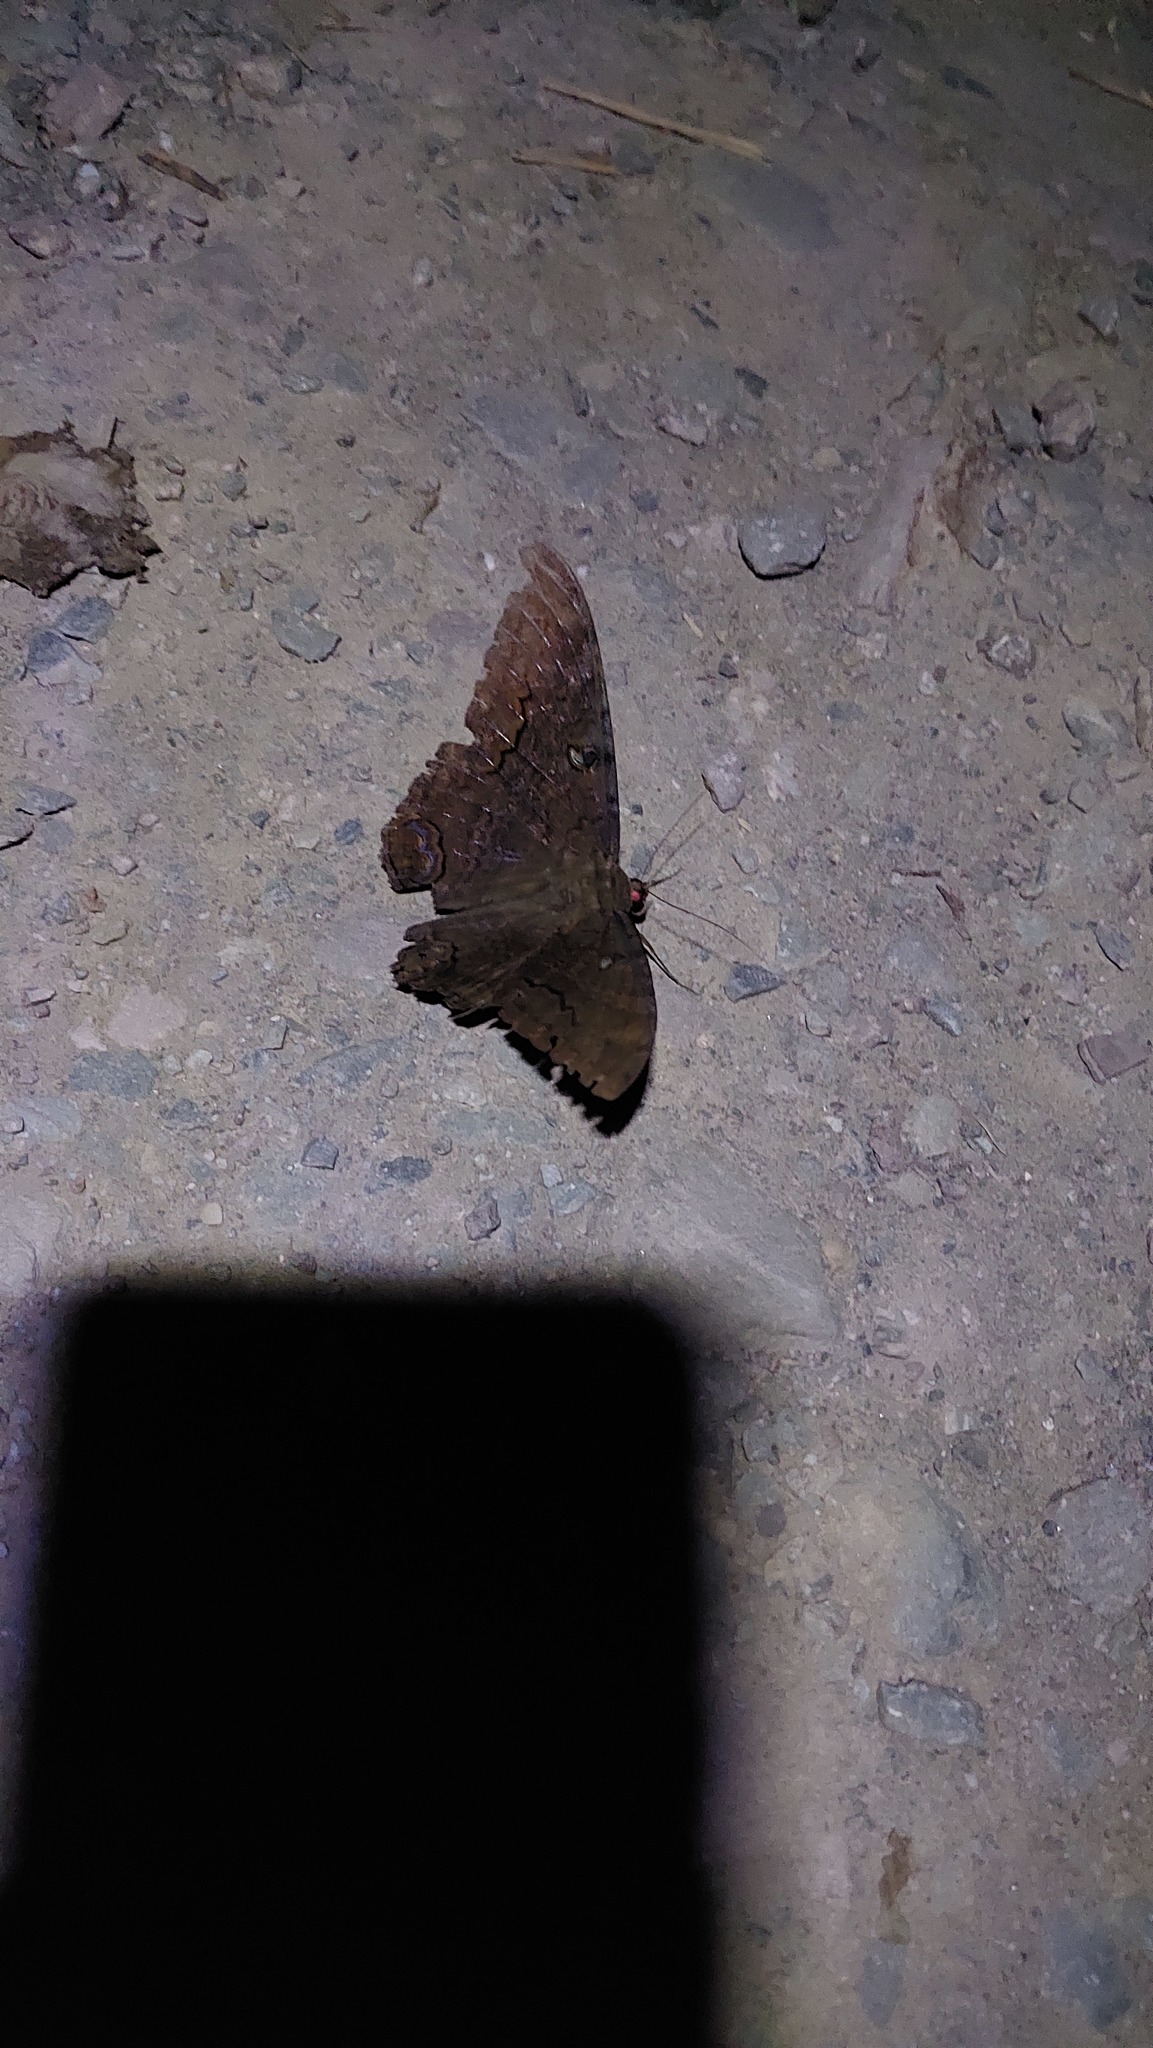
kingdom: Animalia
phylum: Arthropoda
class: Insecta
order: Lepidoptera
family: Erebidae
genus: Ascalapha
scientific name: Ascalapha odorata
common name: Black witch
